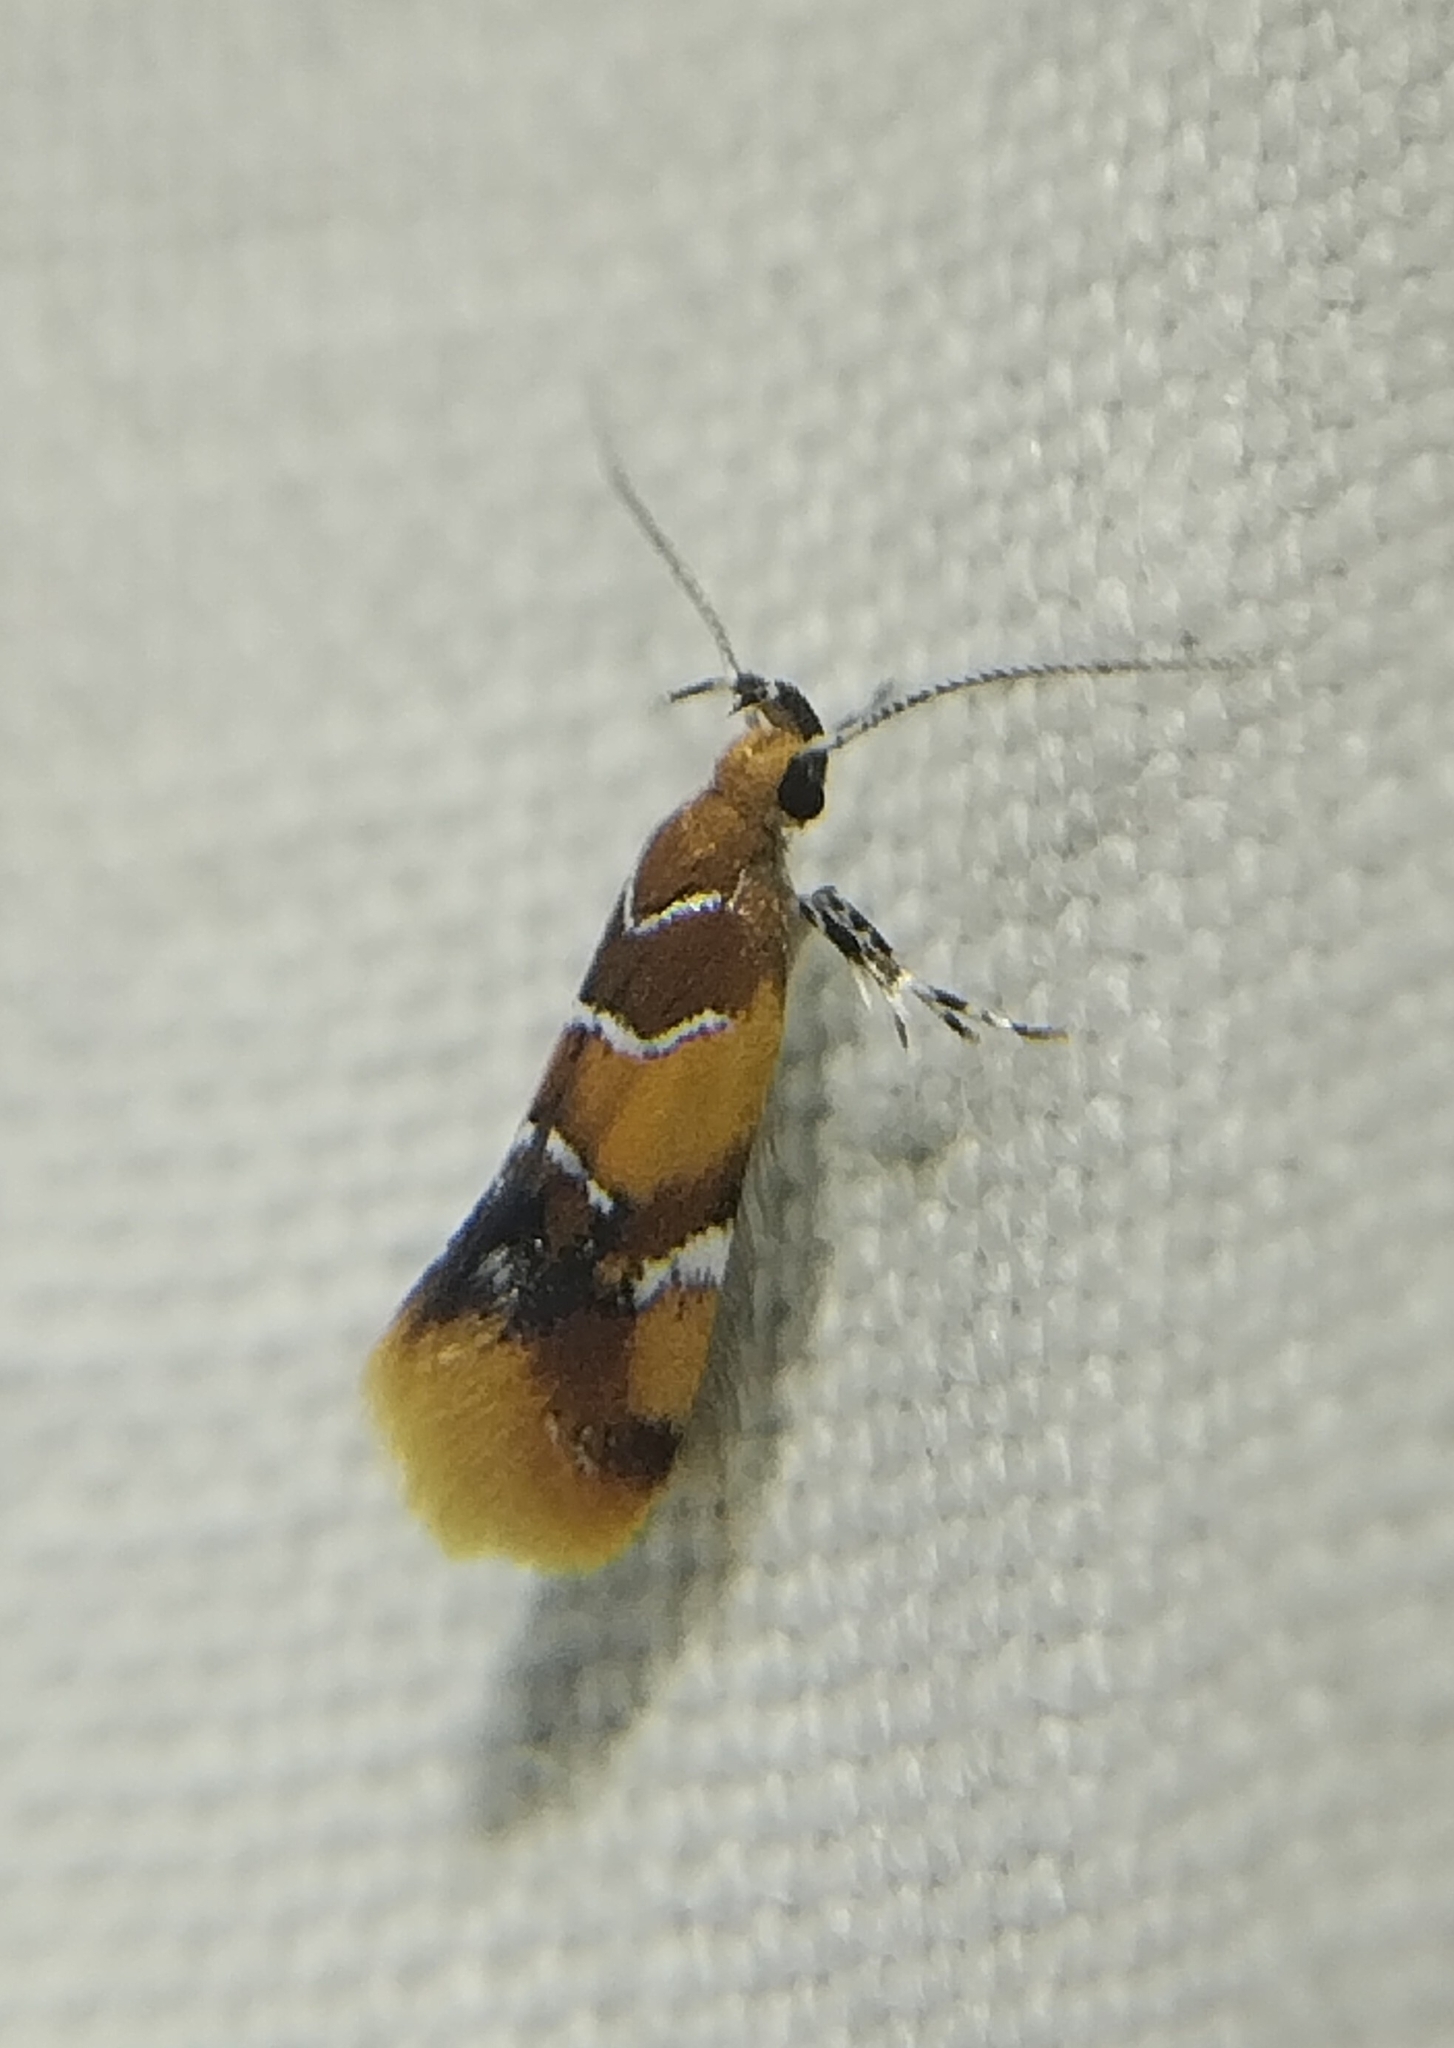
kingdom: Animalia
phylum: Arthropoda
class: Insecta
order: Lepidoptera
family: Oecophoridae
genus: Callima
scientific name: Callima argenticinctella
